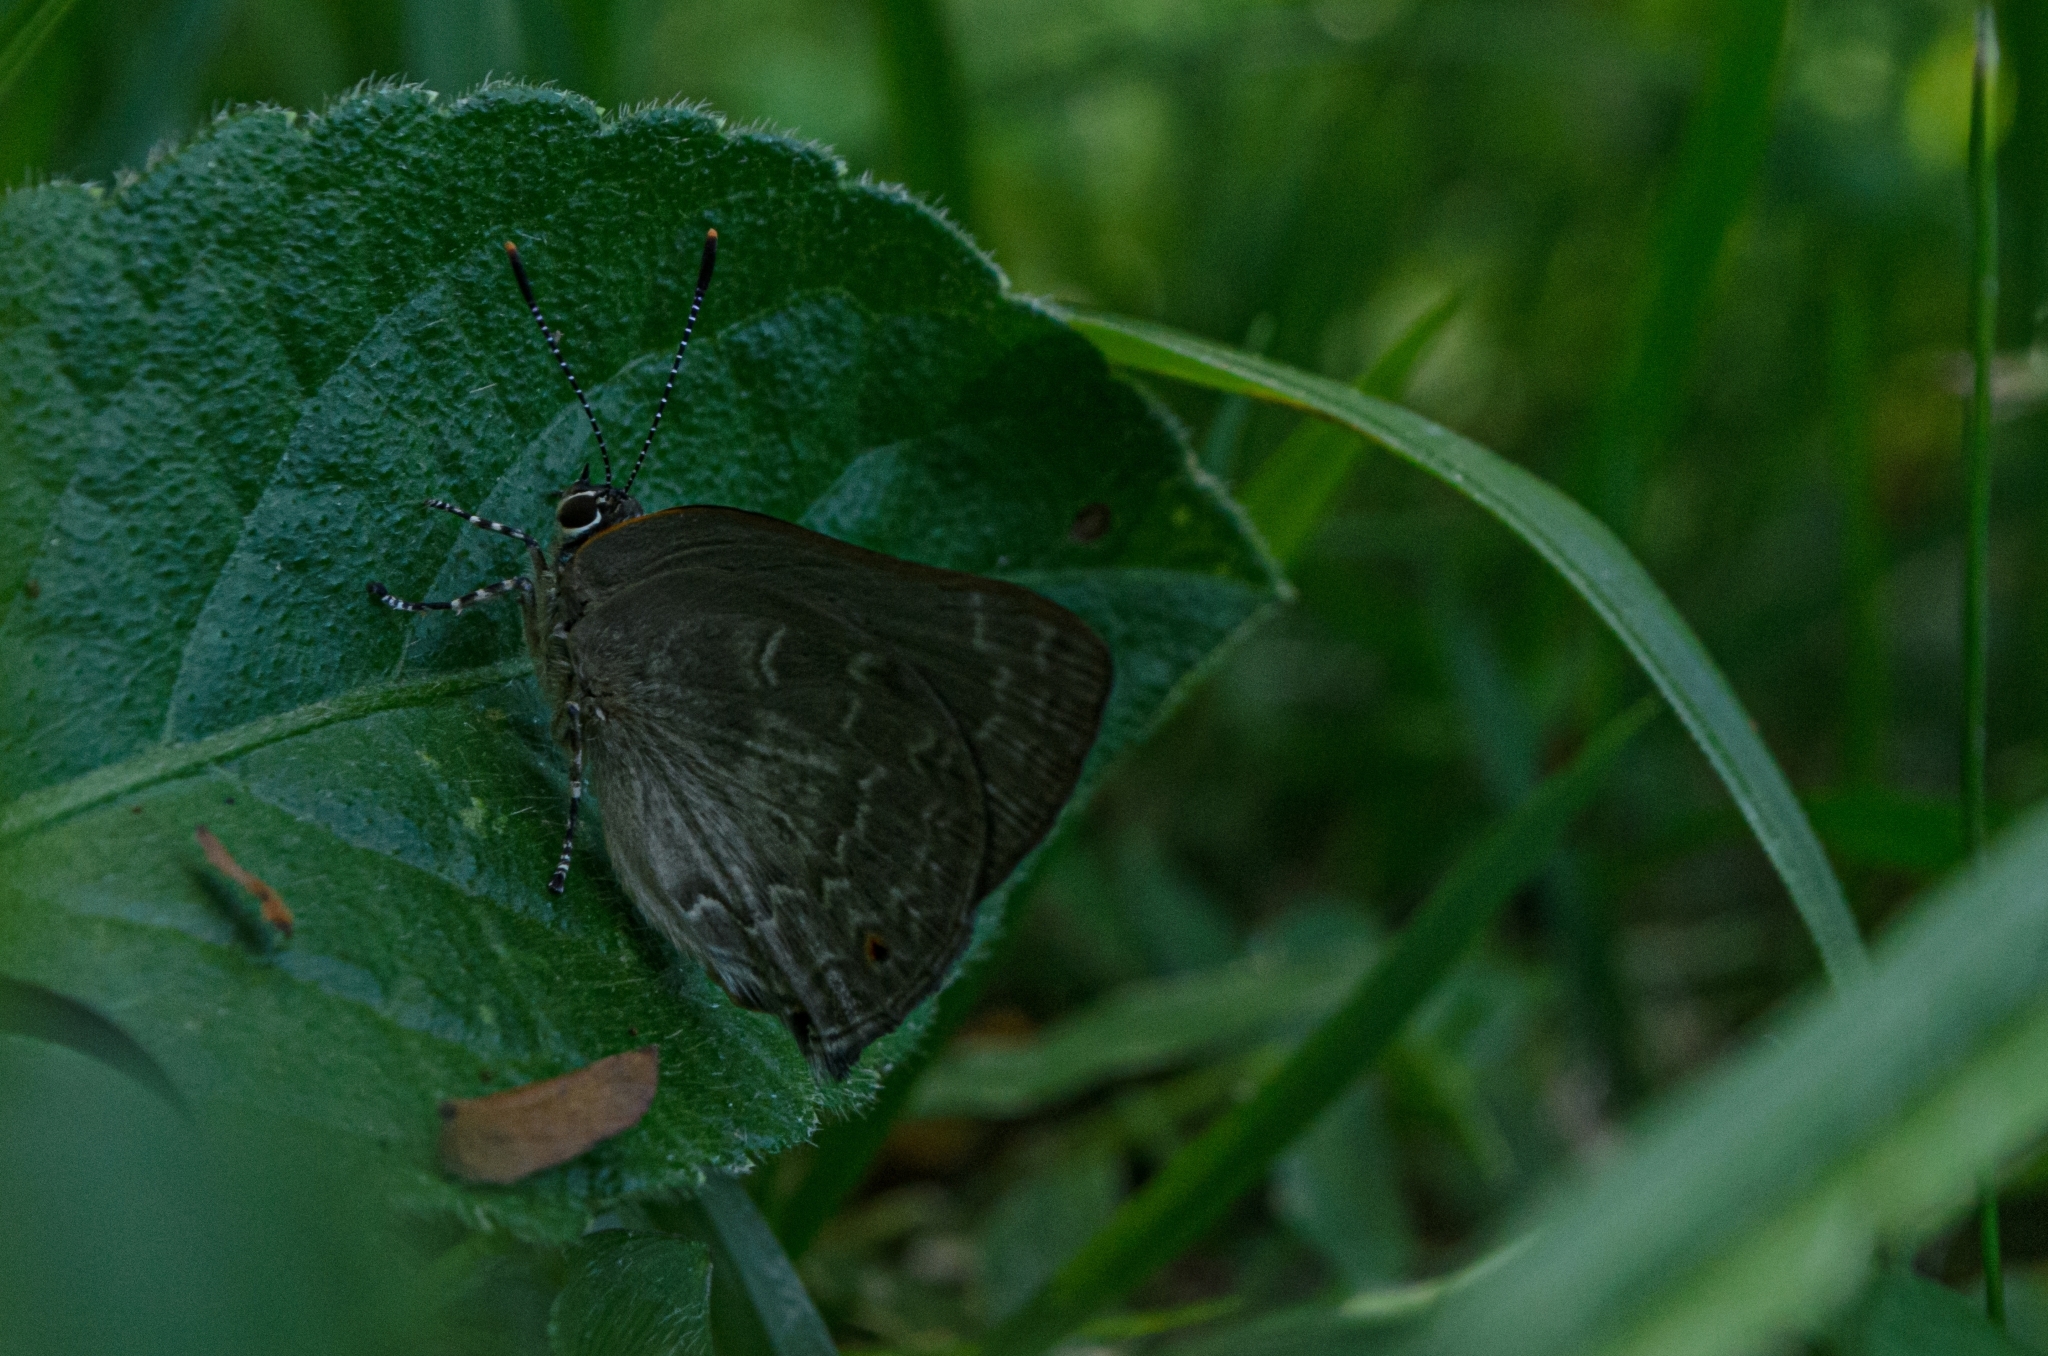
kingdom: Animalia
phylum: Arthropoda
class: Insecta
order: Lepidoptera
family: Lycaenidae
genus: Ignata
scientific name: Ignata
